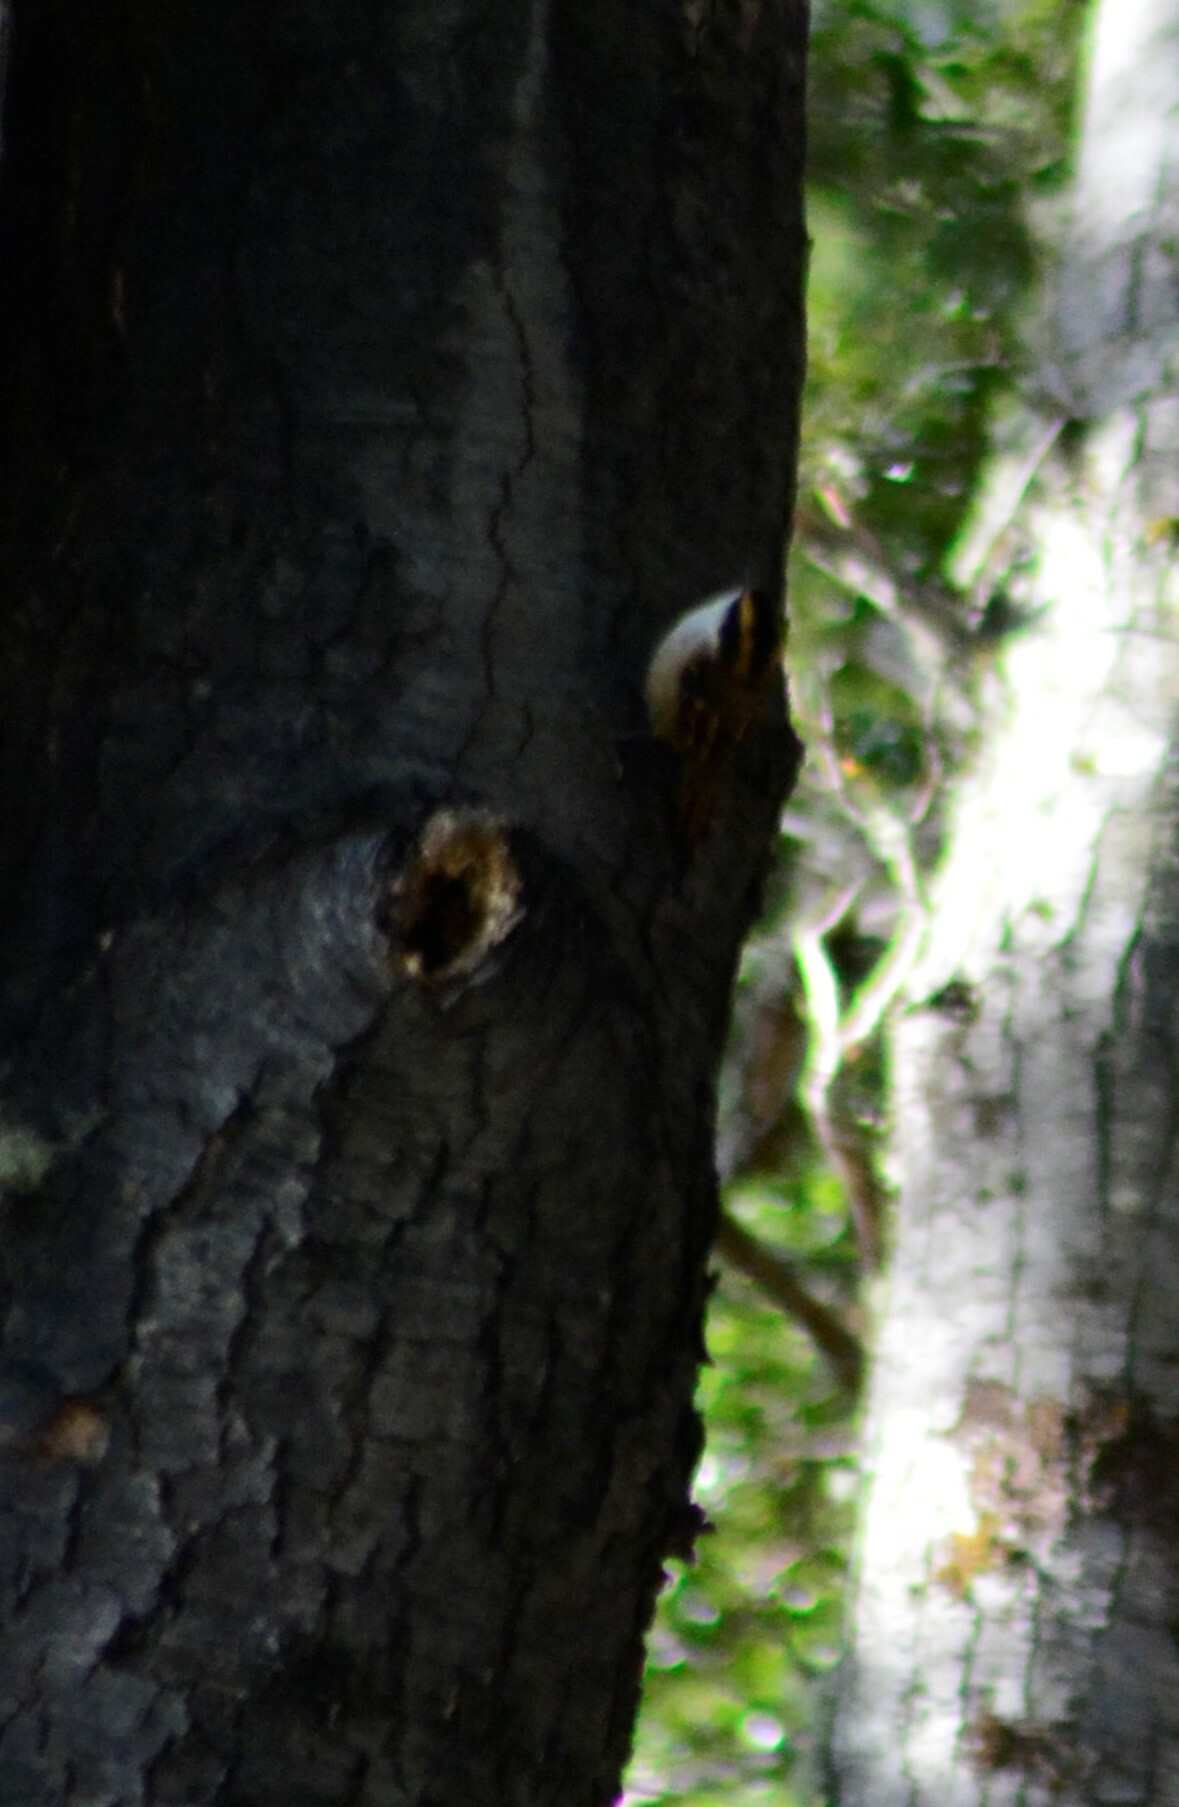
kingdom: Animalia
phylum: Chordata
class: Aves
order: Passeriformes
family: Furnariidae
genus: Aphrastura
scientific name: Aphrastura spinicauda
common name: Thorn-tailed rayadito
